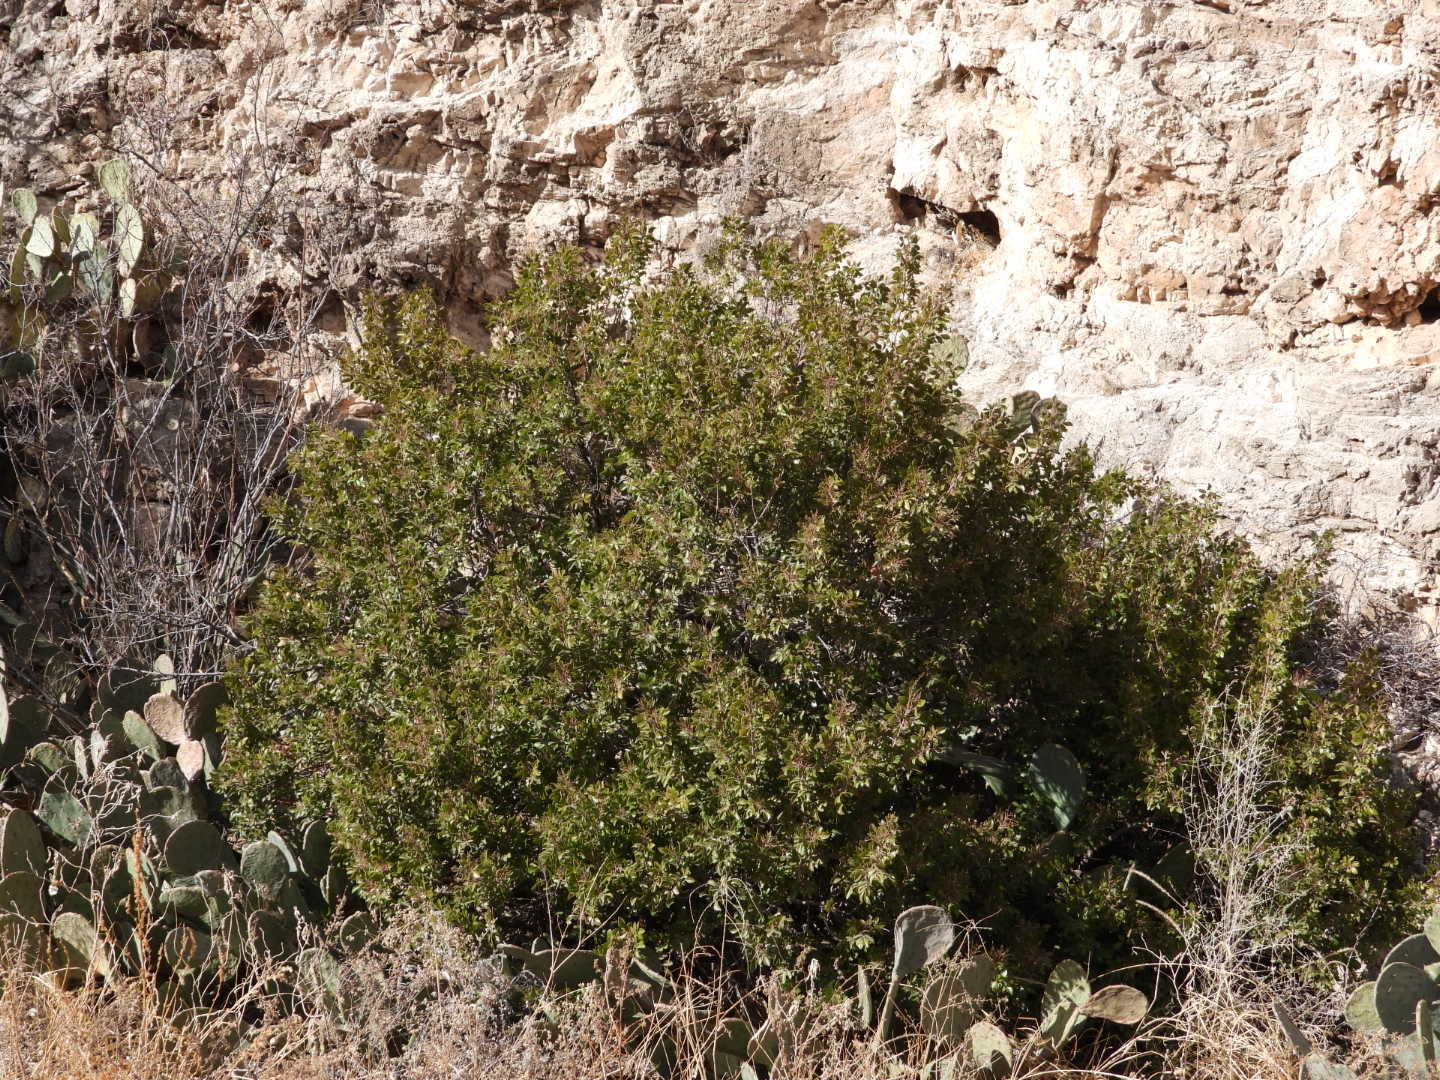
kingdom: Plantae
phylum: Tracheophyta
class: Magnoliopsida
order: Sapindales
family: Anacardiaceae
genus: Rhus
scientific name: Rhus virens
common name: Evergreen sumac
